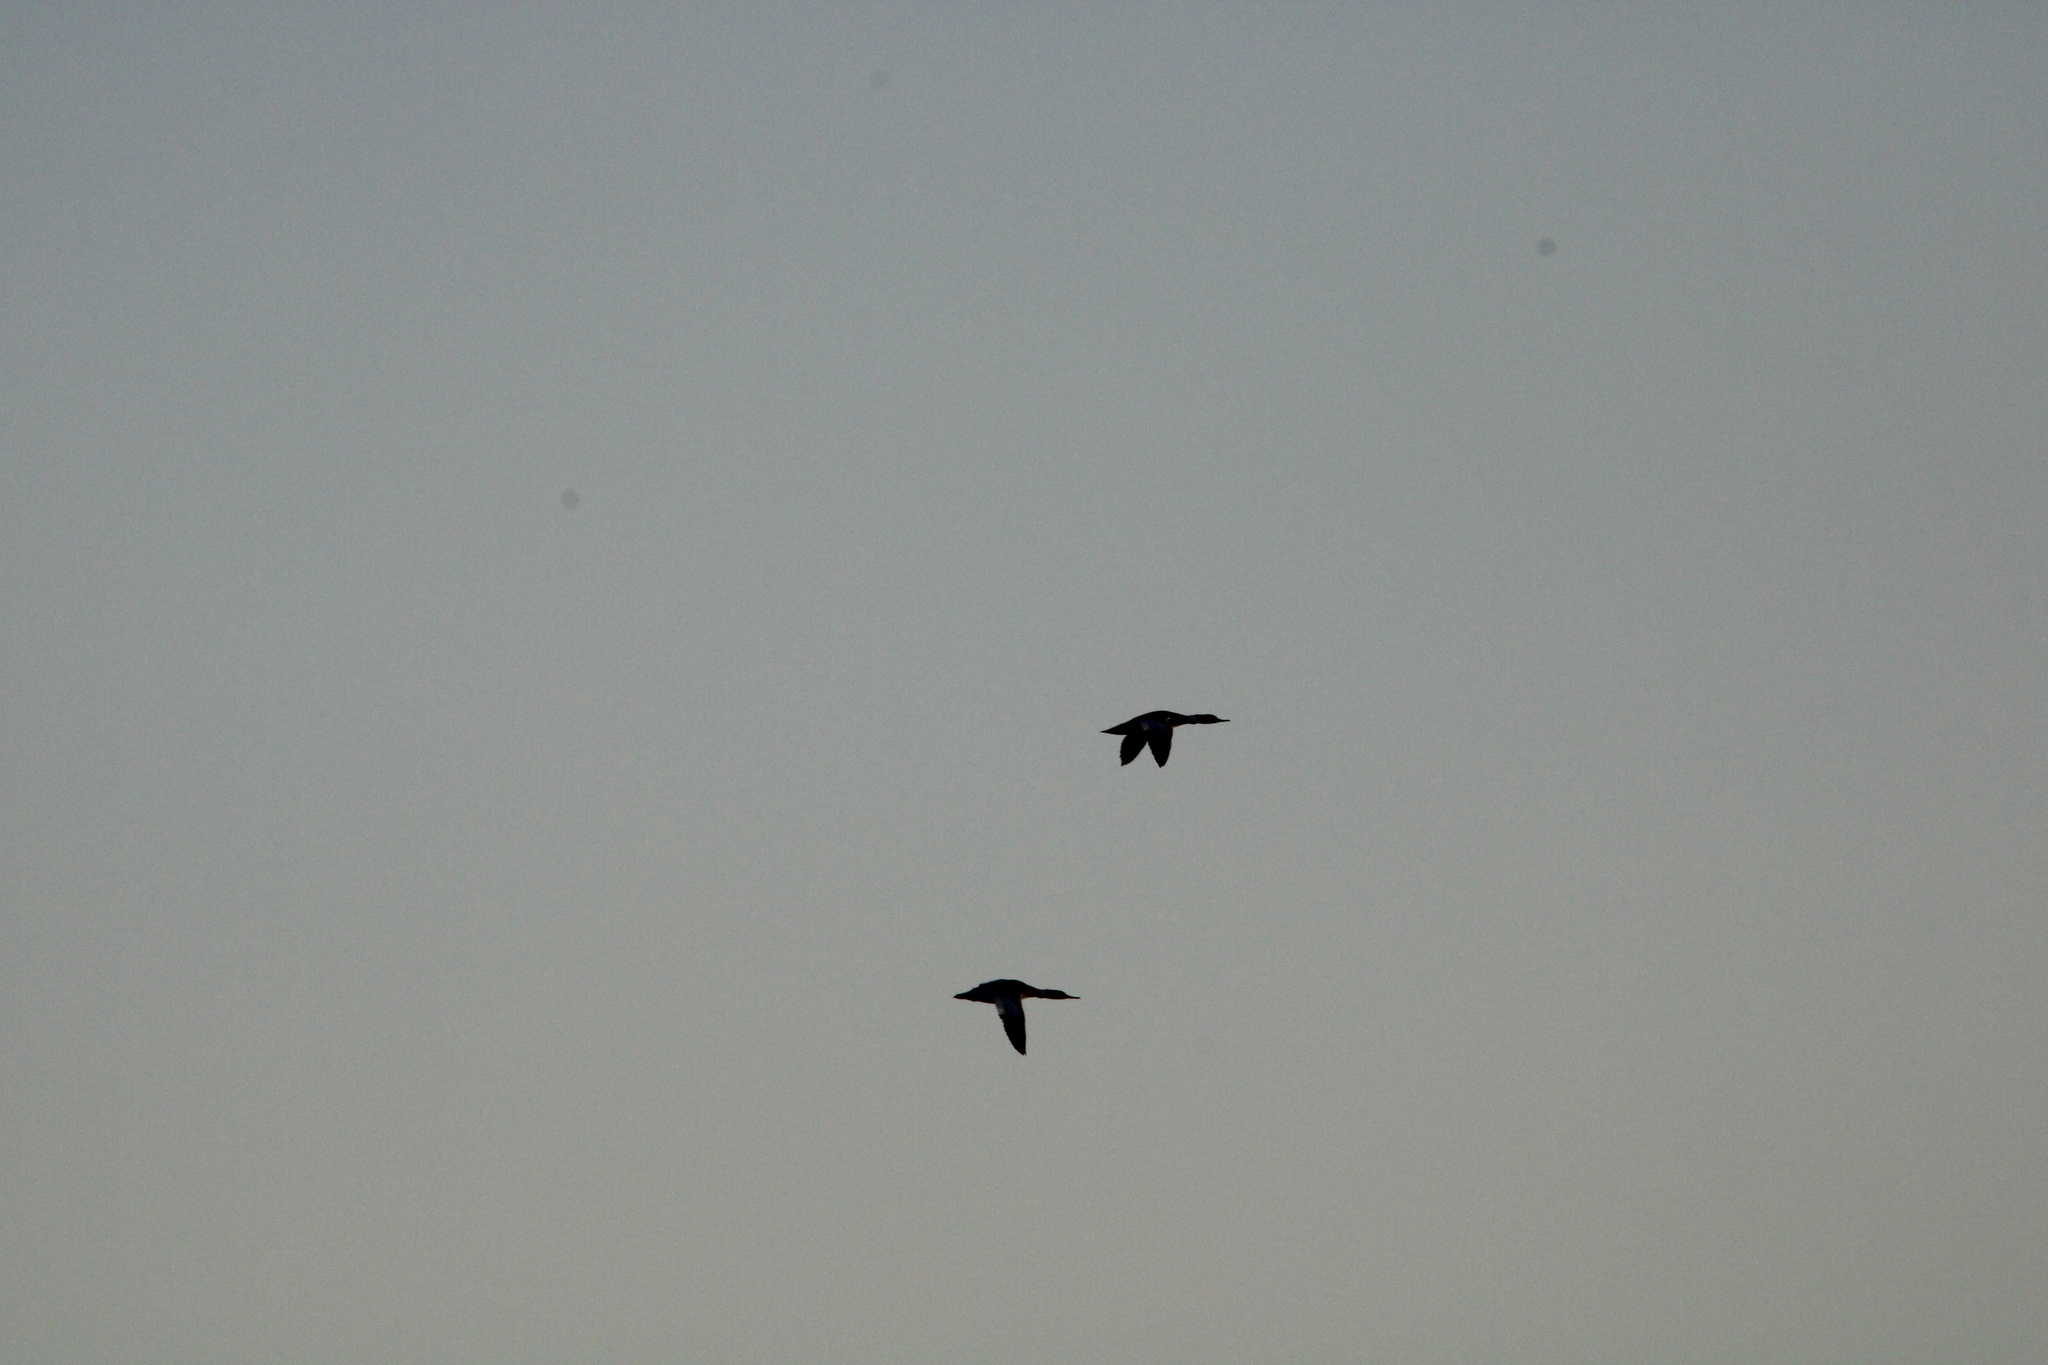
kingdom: Animalia
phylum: Chordata
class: Aves
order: Anseriformes
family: Anatidae
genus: Mergus
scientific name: Mergus serrator
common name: Red-breasted merganser
